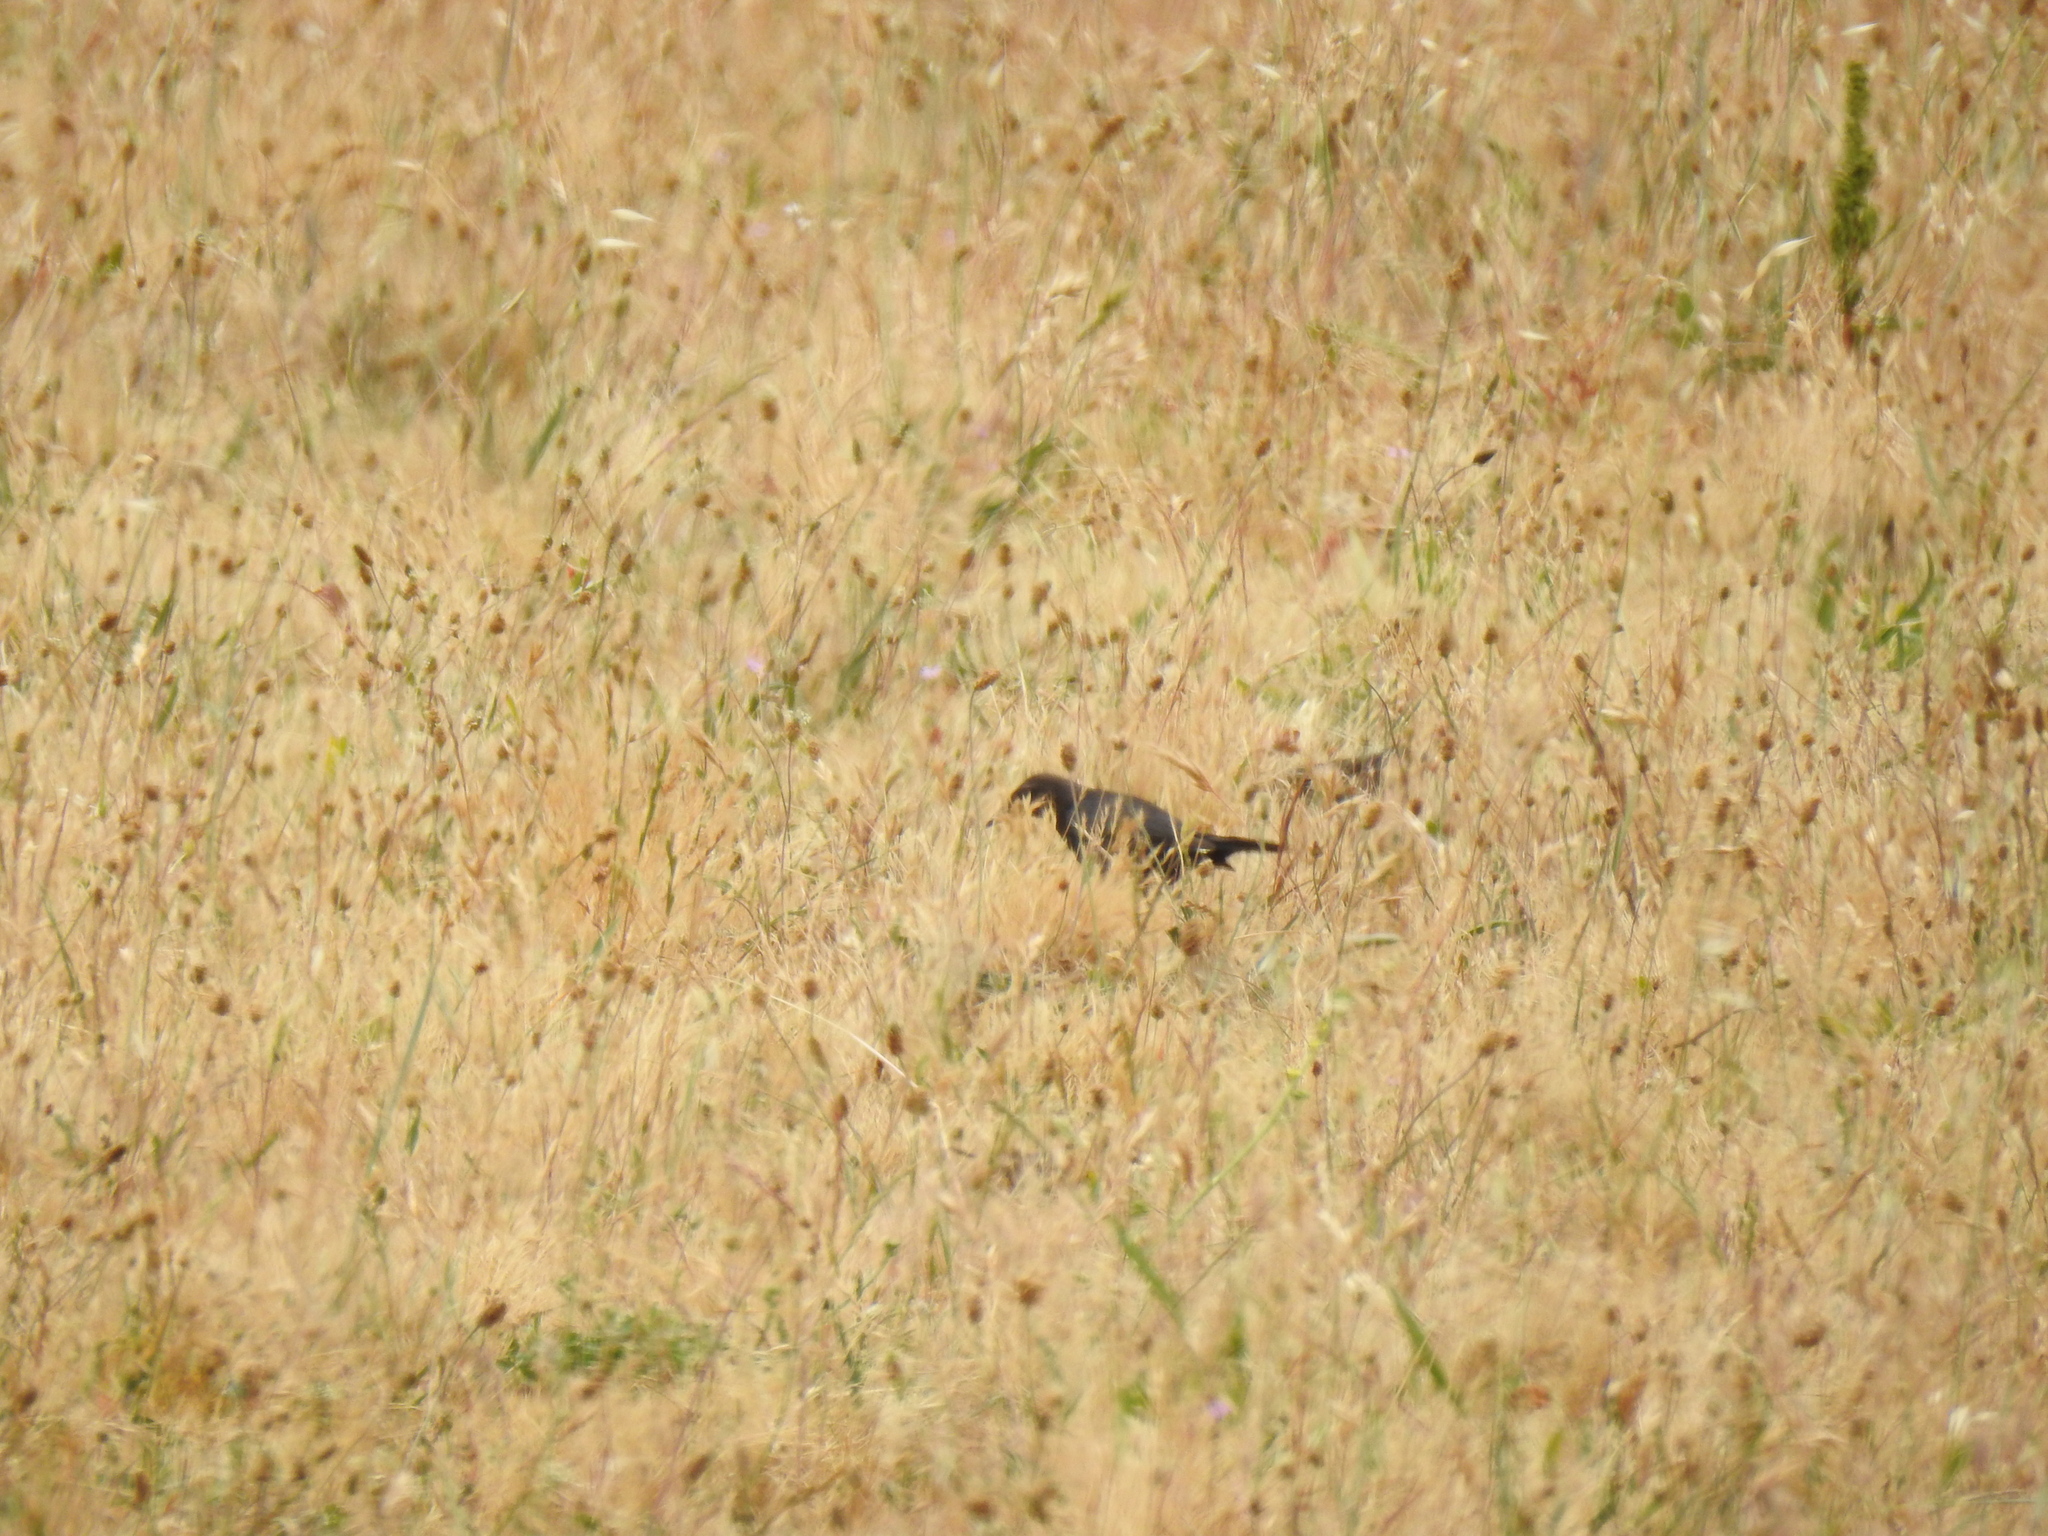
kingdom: Animalia
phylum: Chordata
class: Aves
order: Passeriformes
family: Icteridae
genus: Euphagus
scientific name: Euphagus cyanocephalus
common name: Brewer's blackbird
